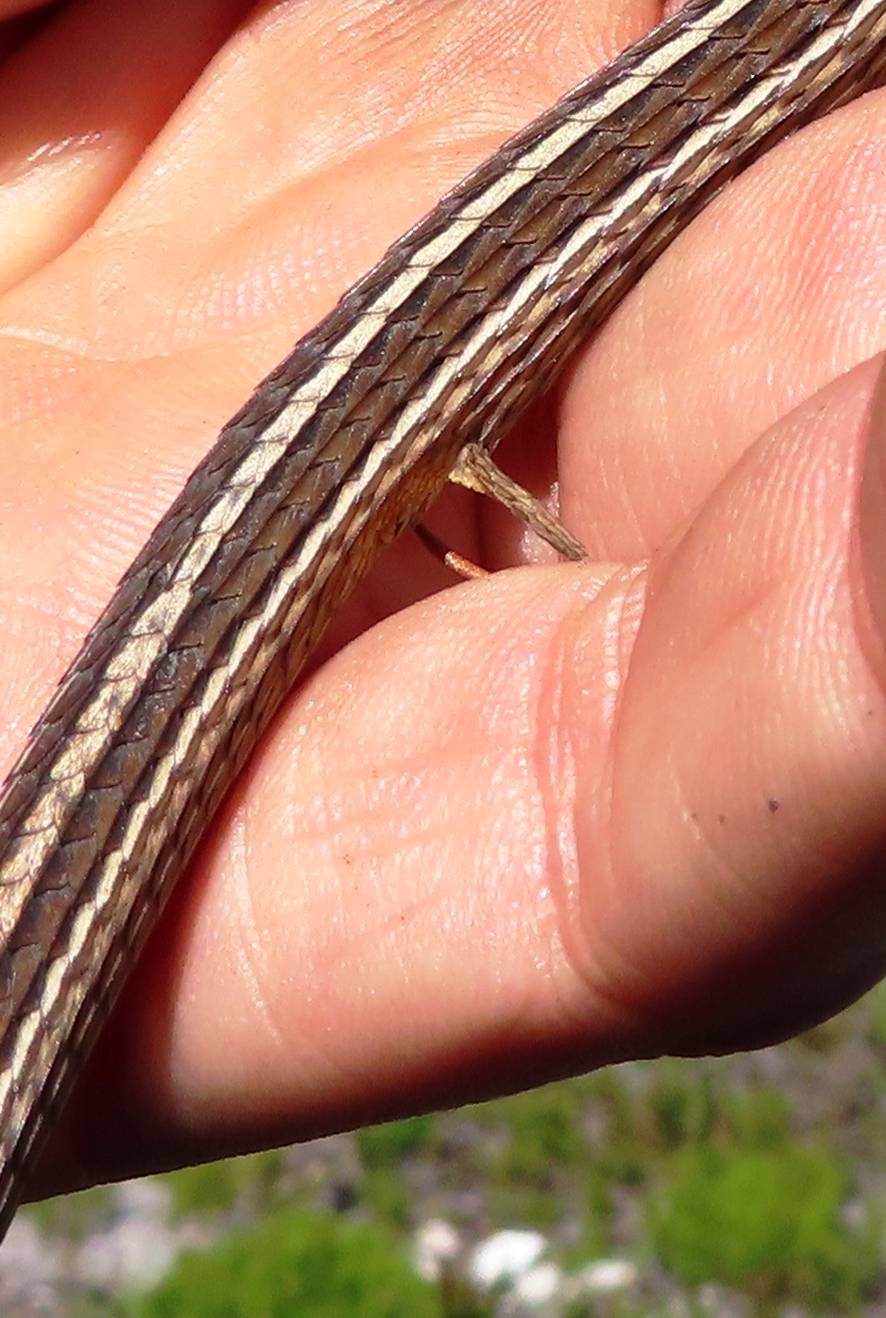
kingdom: Animalia
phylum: Chordata
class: Squamata
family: Cordylidae
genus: Chamaesaura
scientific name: Chamaesaura anguina
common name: Cape snake lizard
